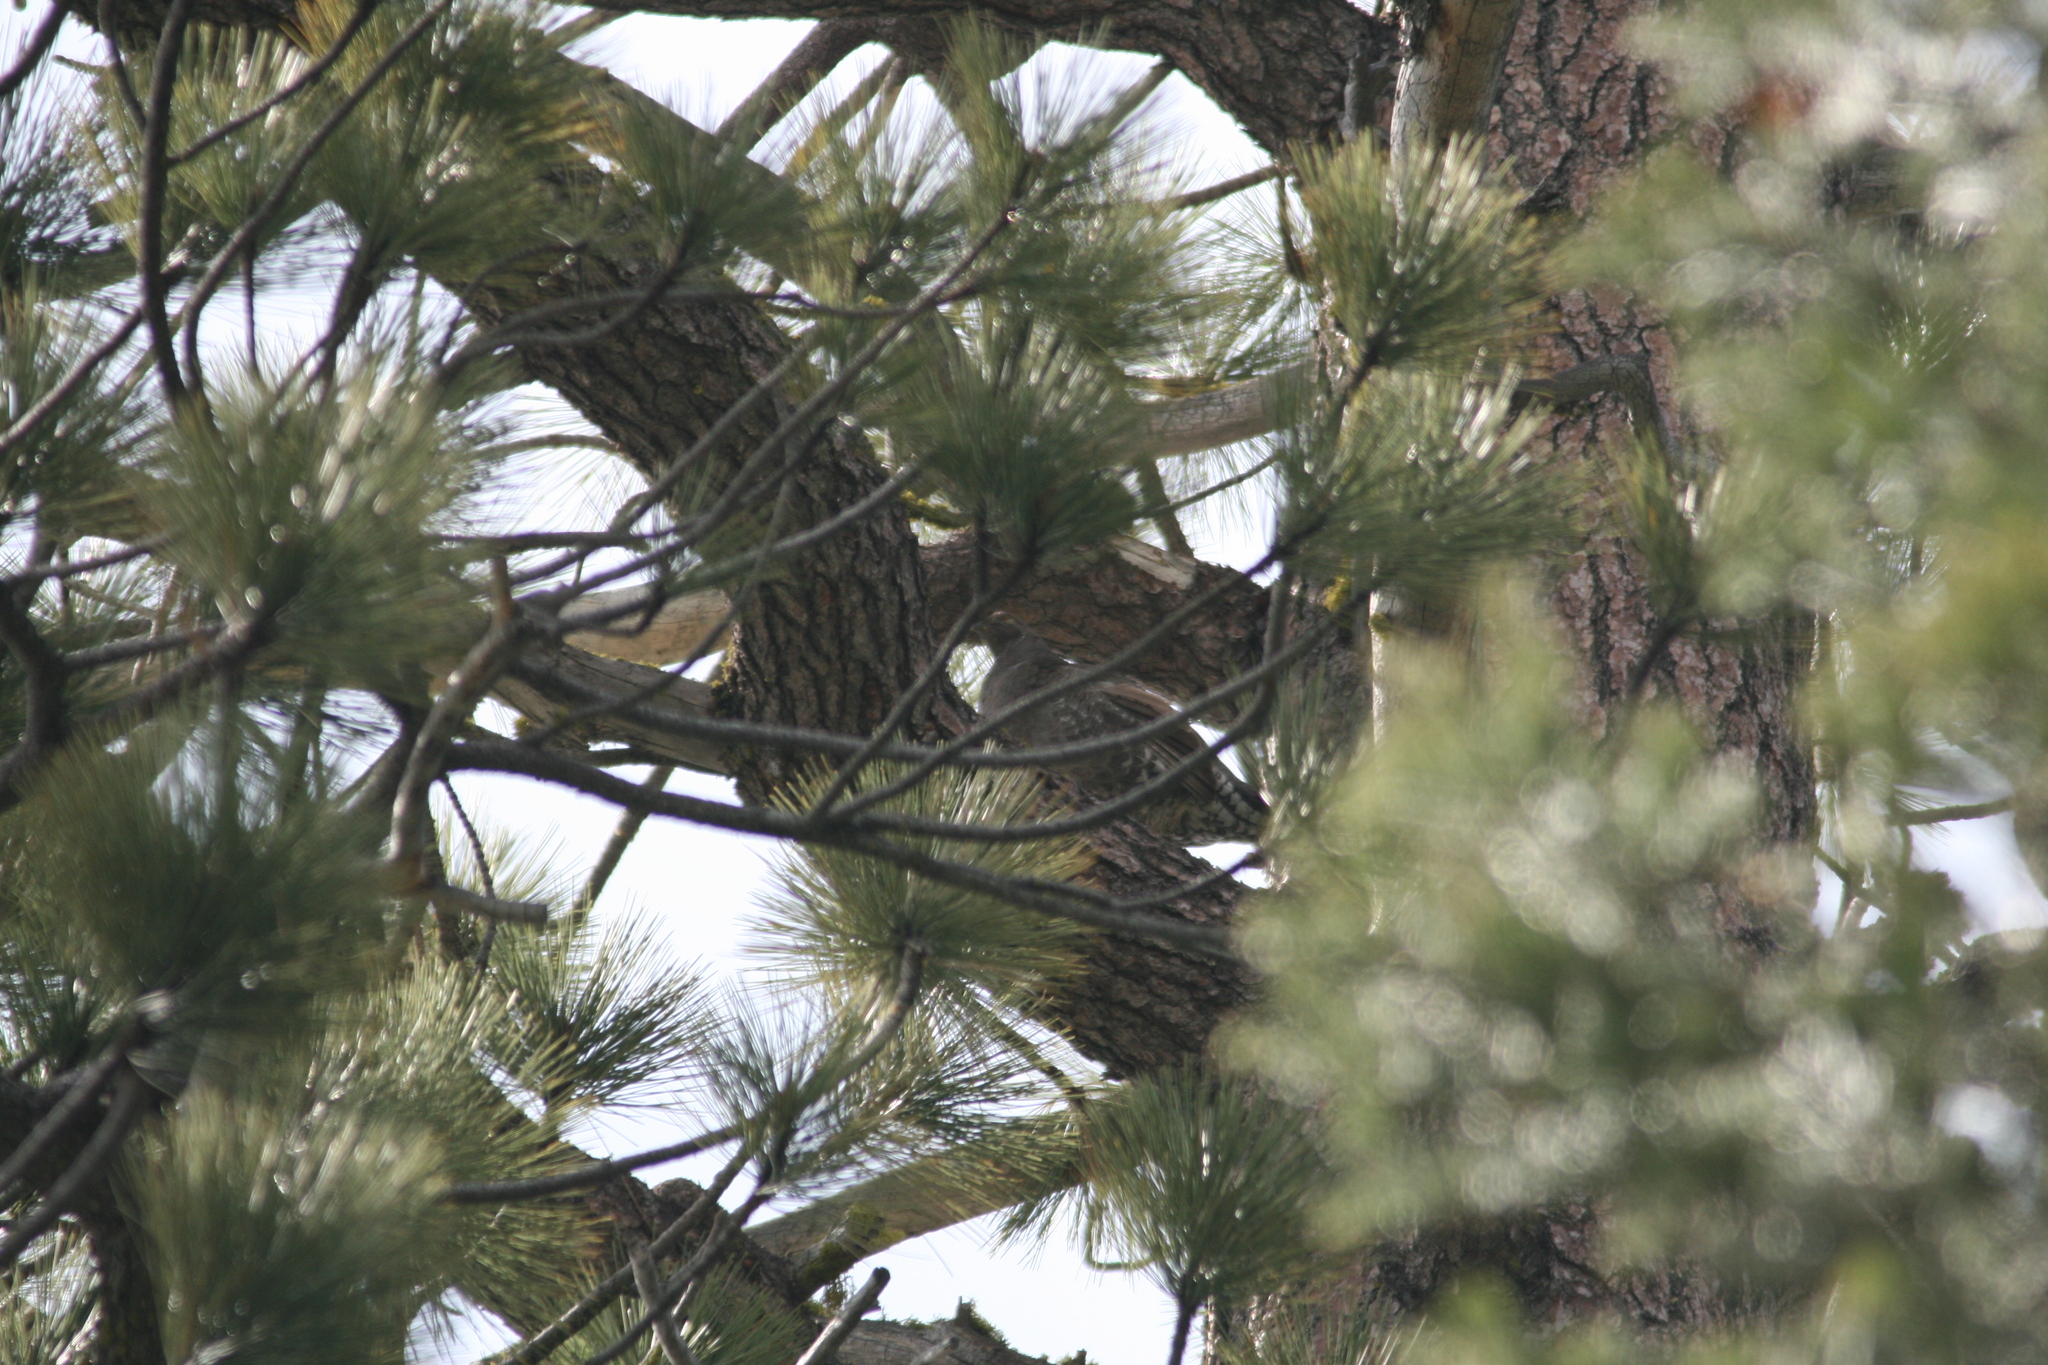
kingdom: Animalia
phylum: Chordata
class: Aves
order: Galliformes
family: Phasianidae
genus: Dendragapus
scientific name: Dendragapus fuliginosus
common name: Sooty grouse
